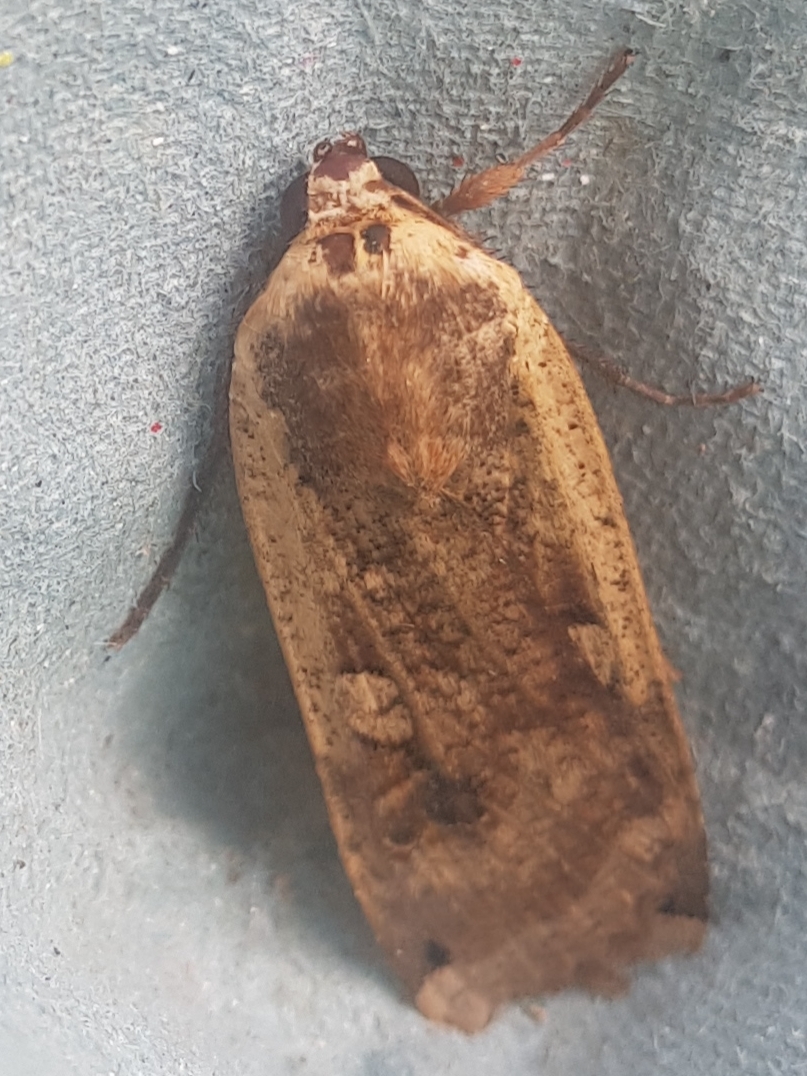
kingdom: Animalia
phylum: Arthropoda
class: Insecta
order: Lepidoptera
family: Noctuidae
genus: Noctua
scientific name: Noctua pronuba
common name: Large yellow underwing
